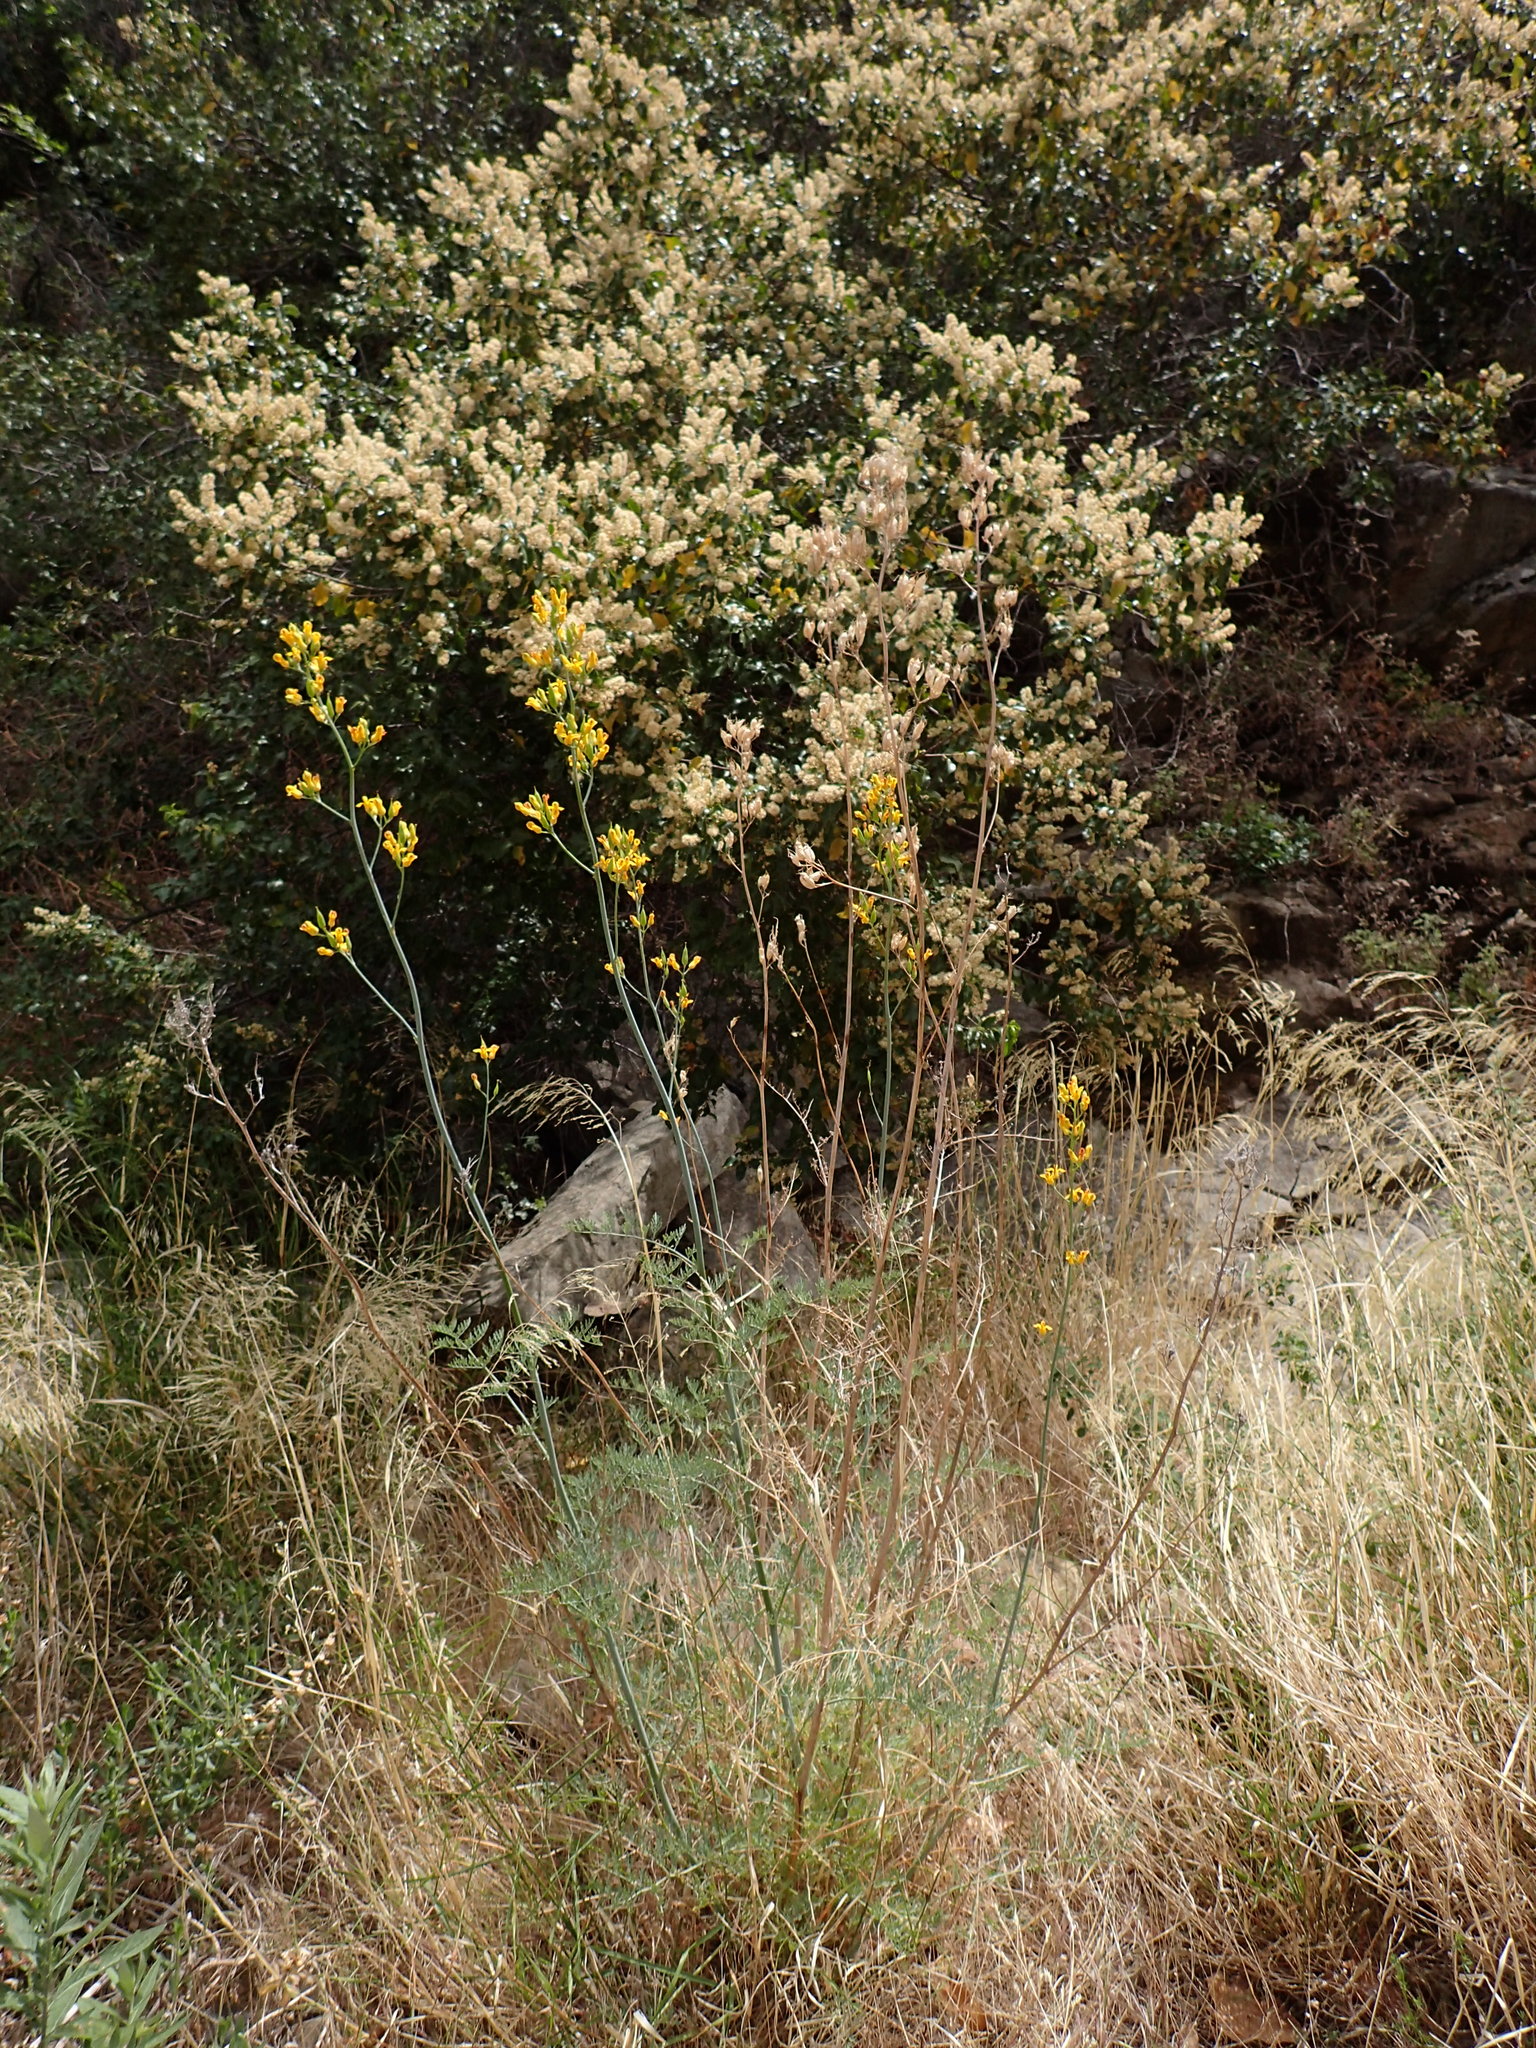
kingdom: Plantae
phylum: Tracheophyta
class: Magnoliopsida
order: Ranunculales
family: Papaveraceae
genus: Ehrendorferia
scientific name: Ehrendorferia chrysantha
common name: Golden eardrops
